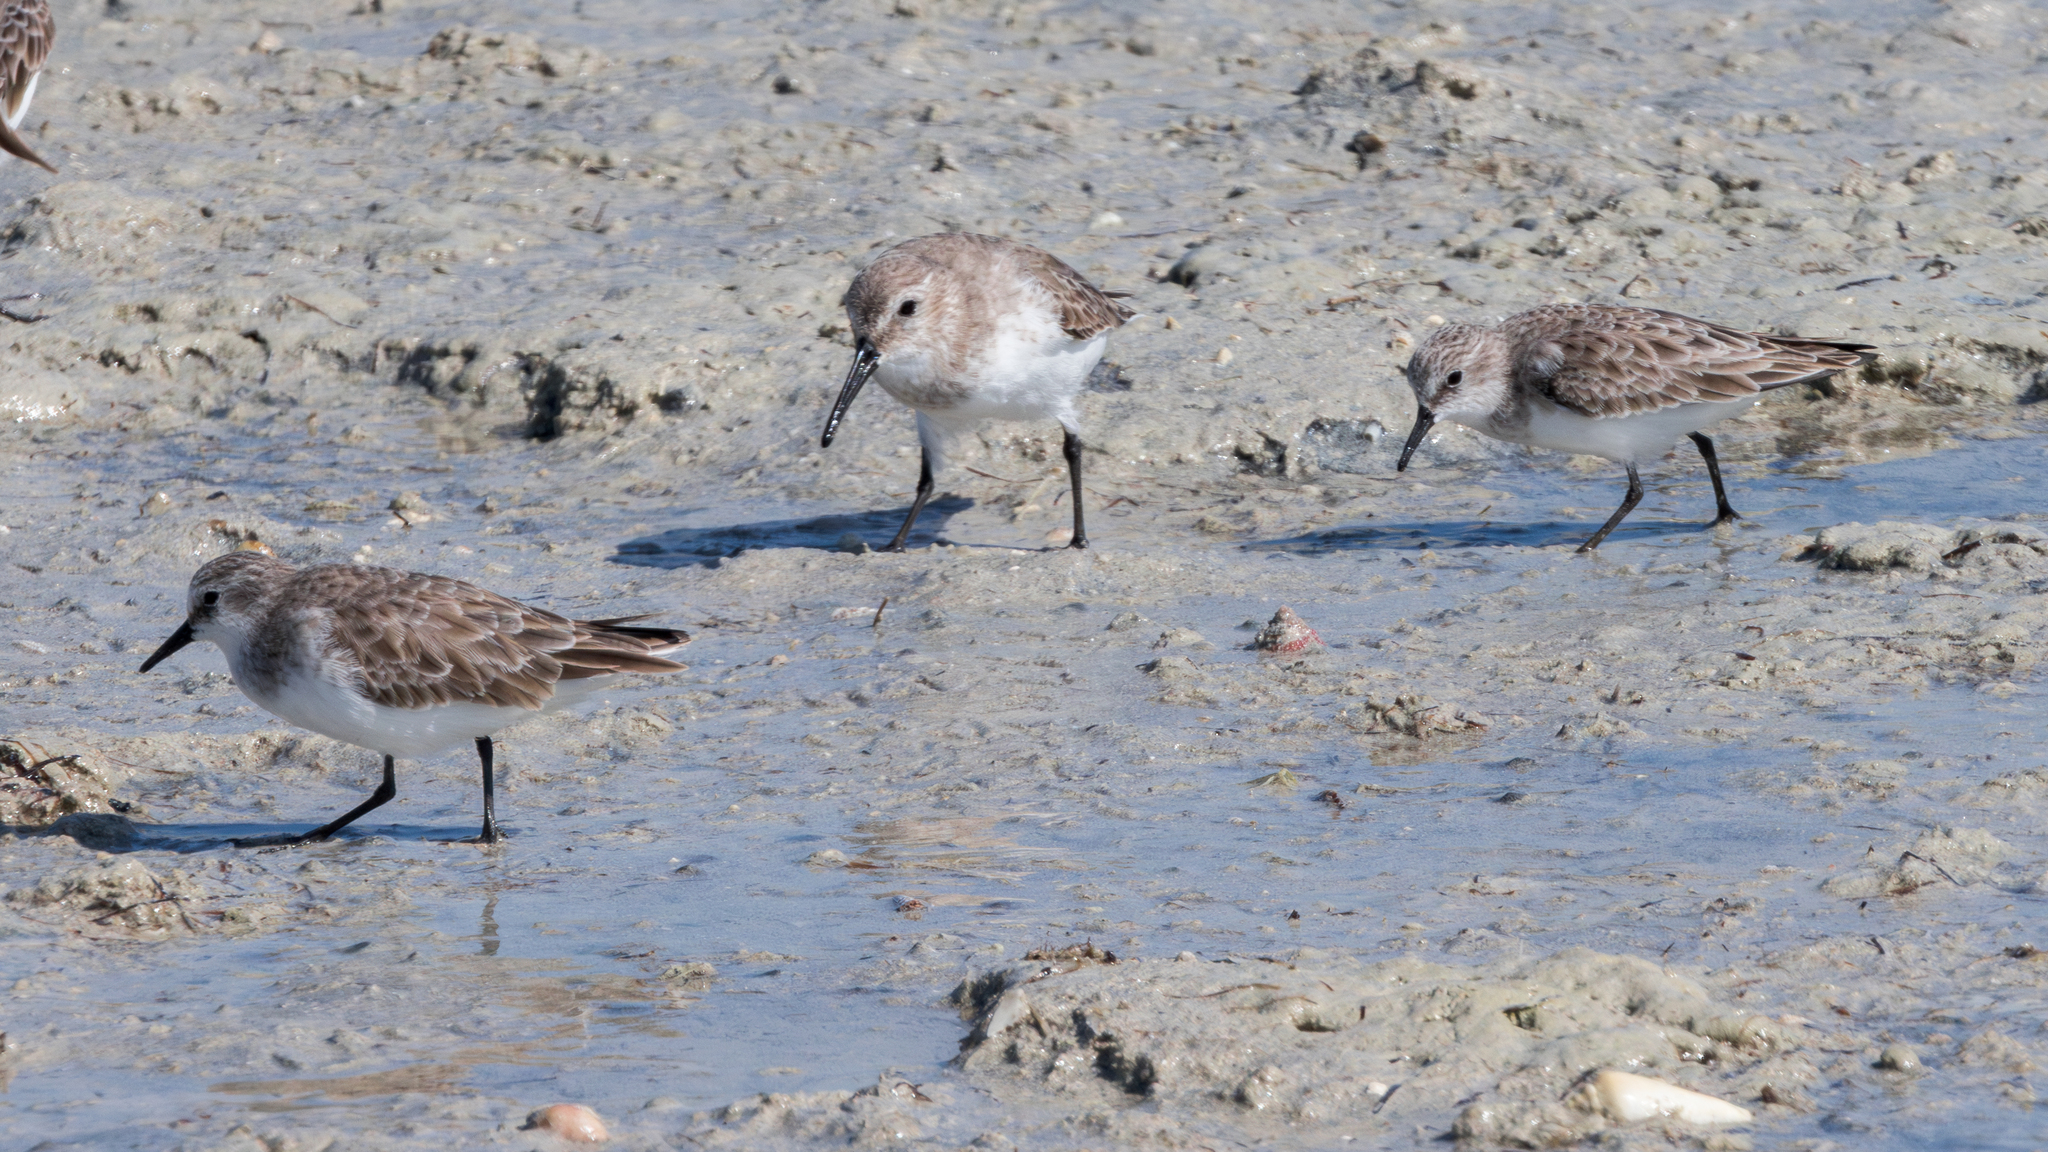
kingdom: Animalia
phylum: Chordata
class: Aves
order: Charadriiformes
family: Scolopacidae
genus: Calidris
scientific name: Calidris minuta
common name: Little stint
